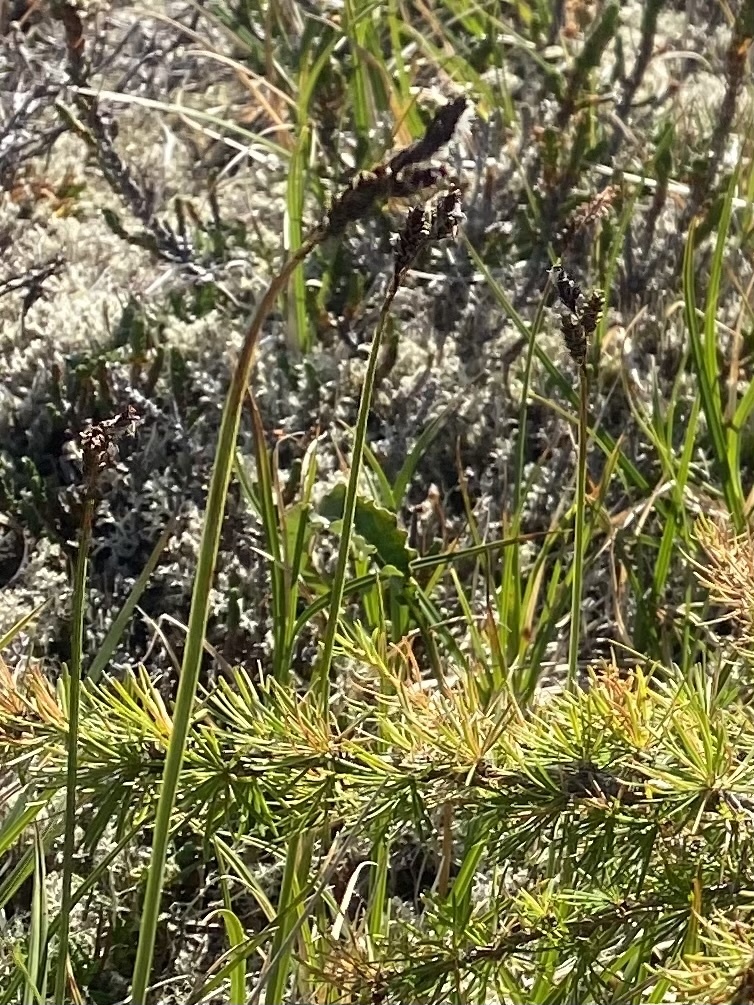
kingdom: Plantae
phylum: Tracheophyta
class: Liliopsida
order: Poales
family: Cyperaceae
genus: Carex
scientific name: Carex bigelowii
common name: Stiff sedge
